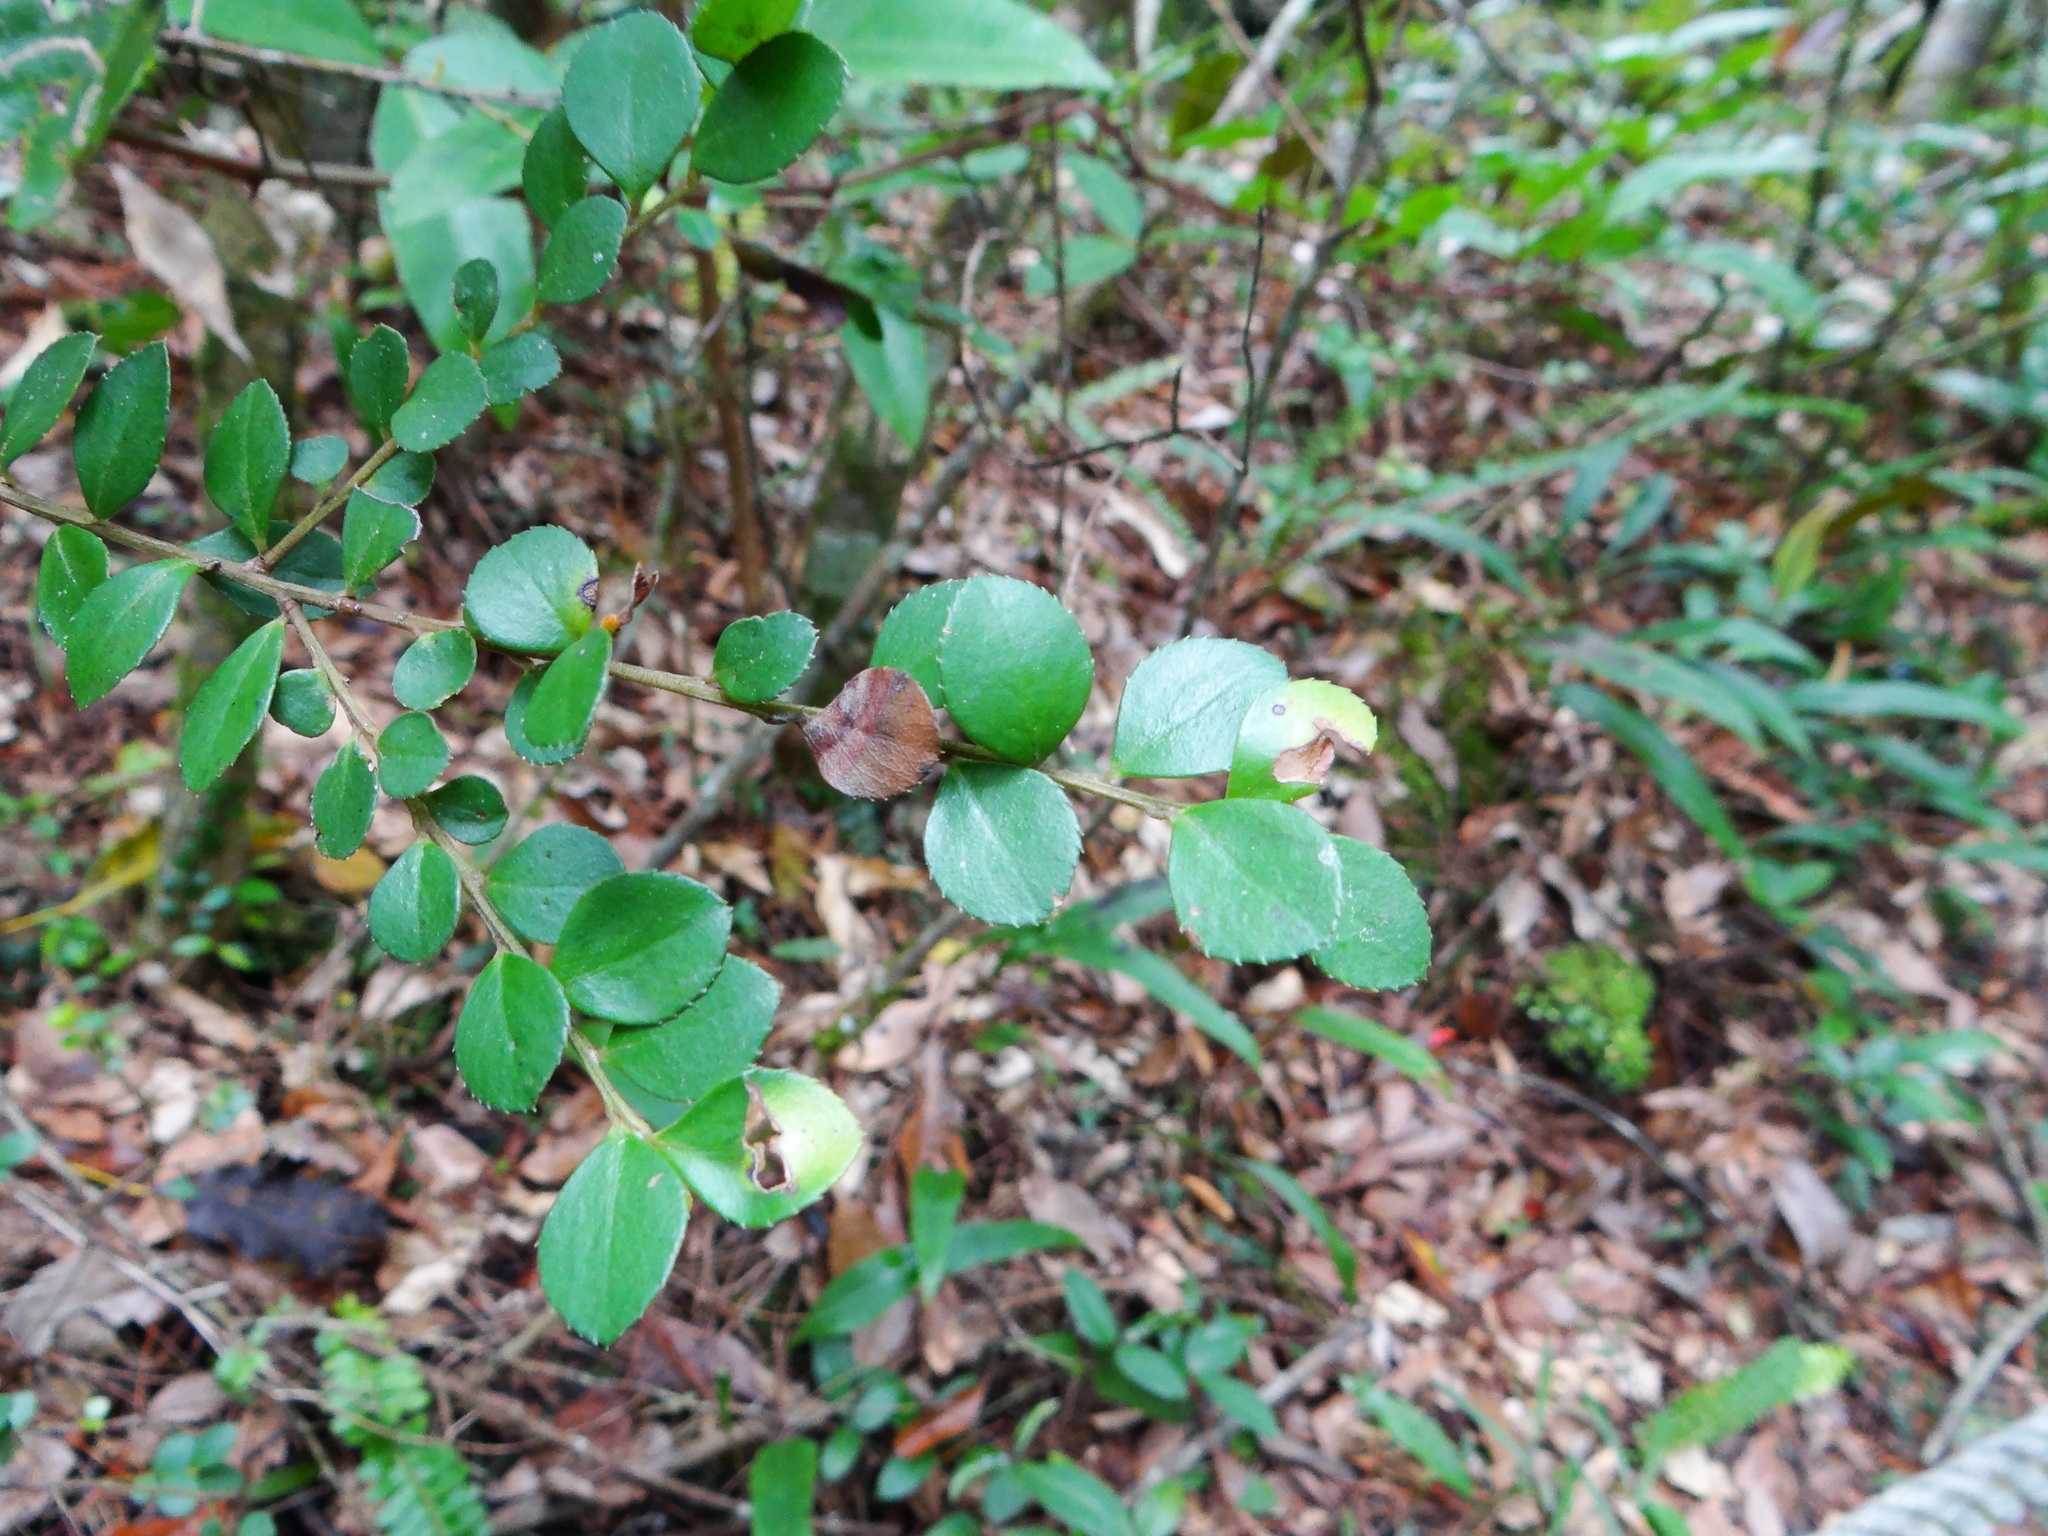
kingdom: Plantae
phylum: Tracheophyta
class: Magnoliopsida
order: Ericales
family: Primulaceae
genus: Myrsine
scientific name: Myrsine africana
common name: African-boxwood
